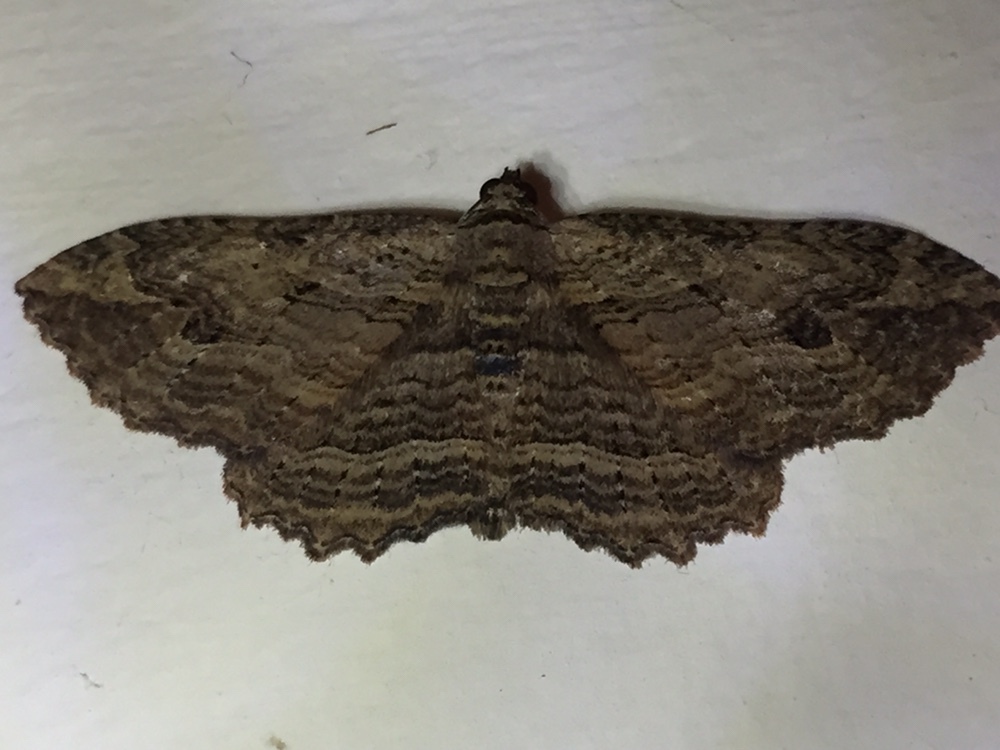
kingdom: Animalia
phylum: Arthropoda
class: Insecta
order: Lepidoptera
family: Geometridae
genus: Austrocidaria
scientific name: Austrocidaria bipartita
